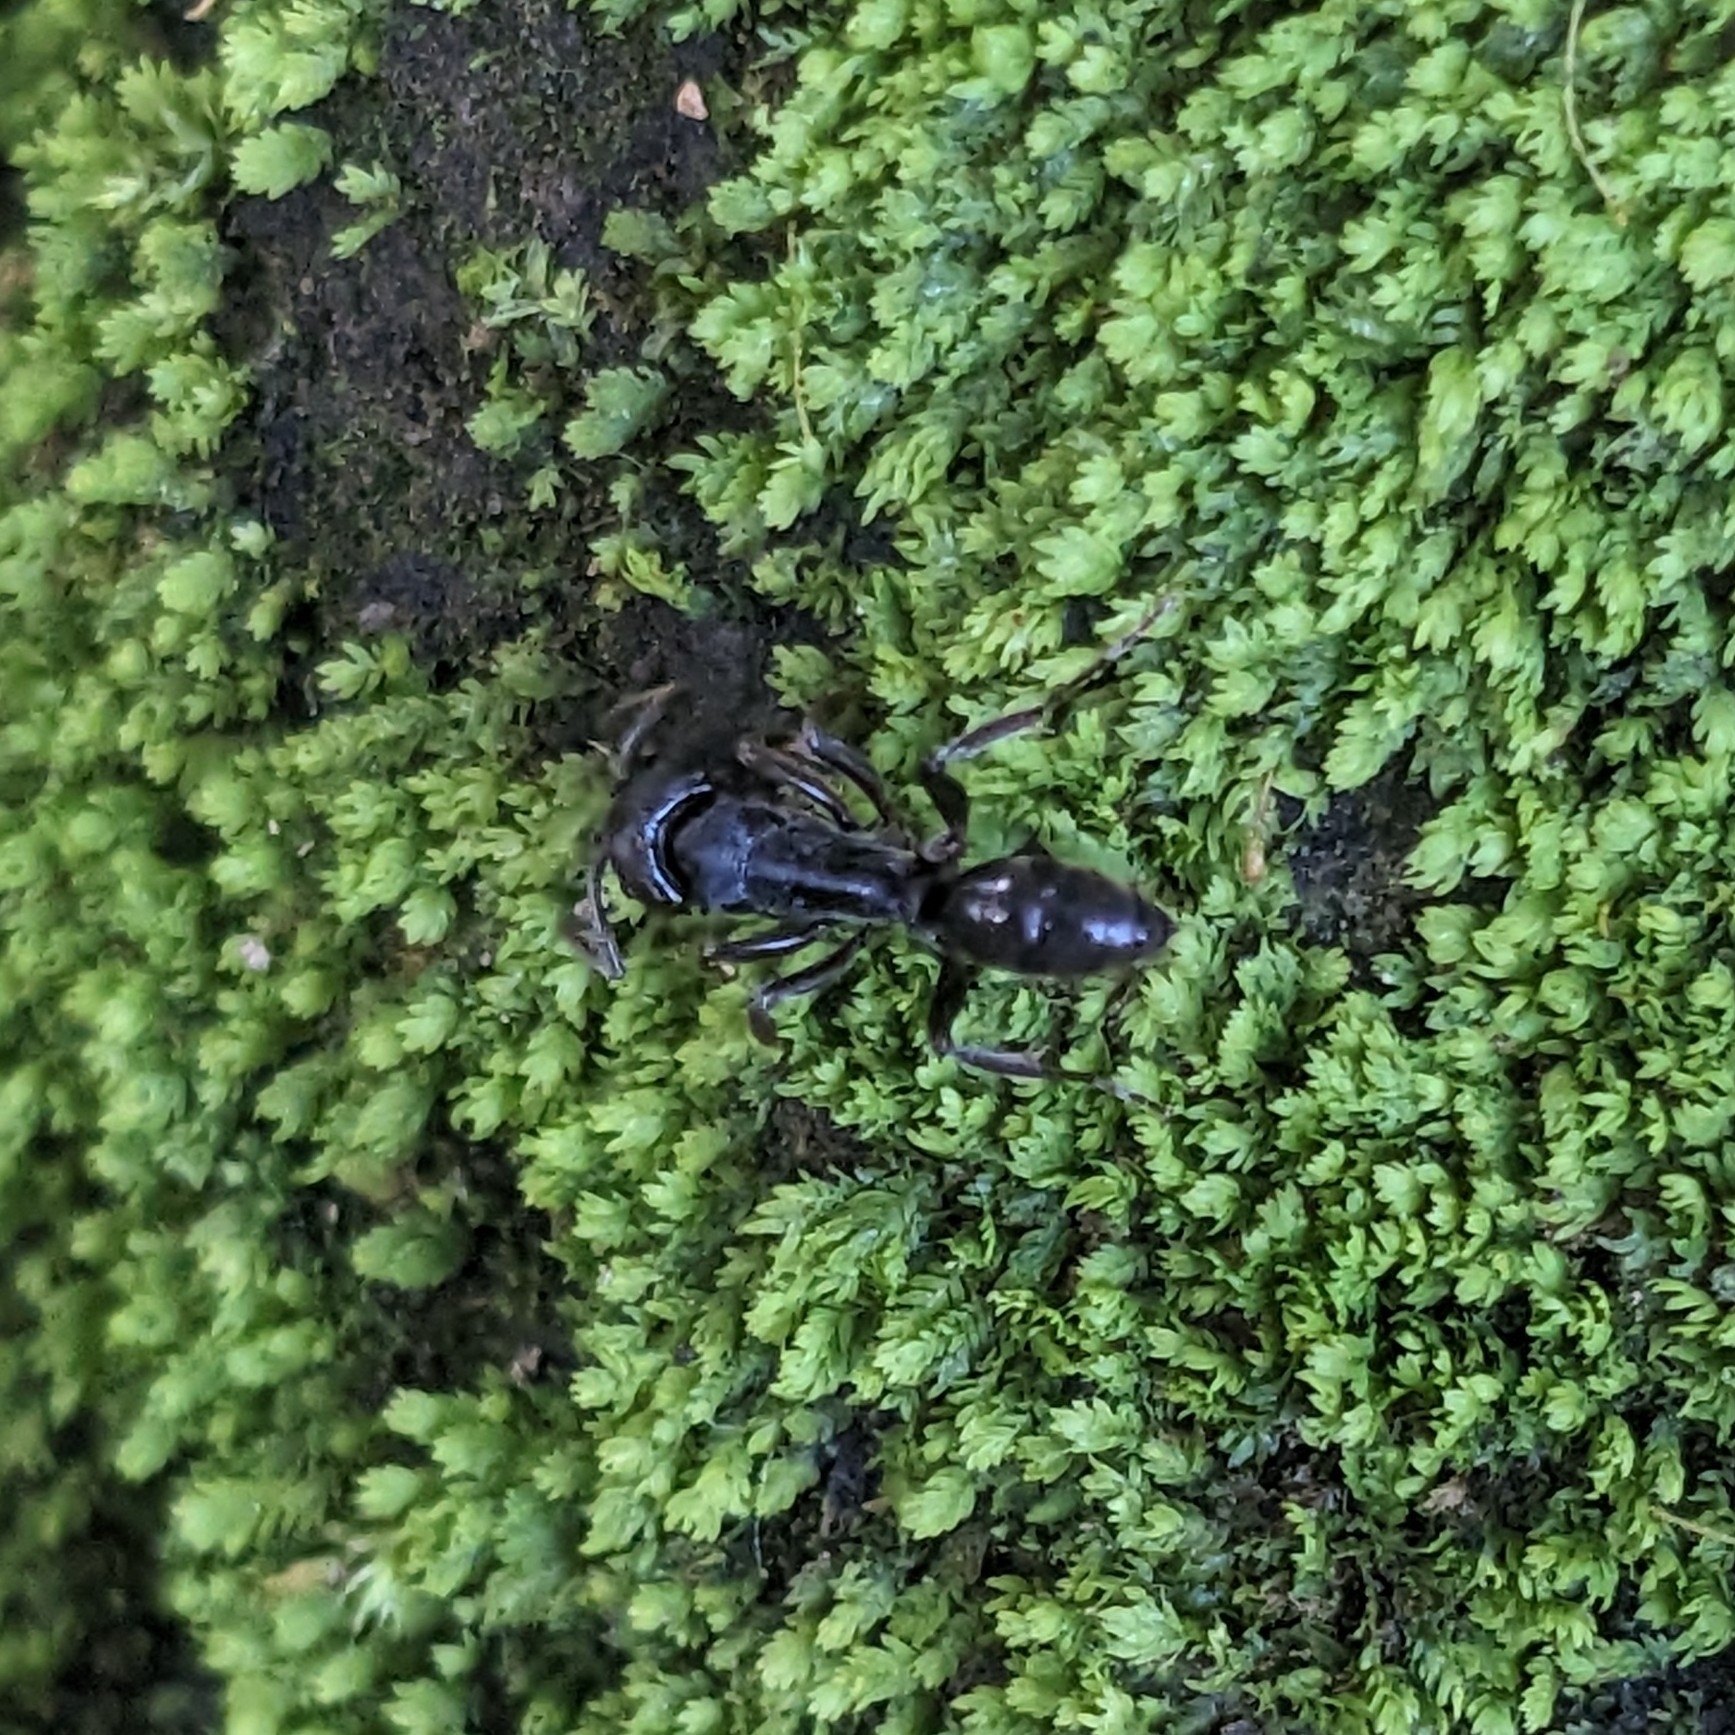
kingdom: Animalia
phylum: Arthropoda
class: Insecta
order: Hymenoptera
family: Formicidae
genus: Odontoponera
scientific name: Odontoponera denticulata
